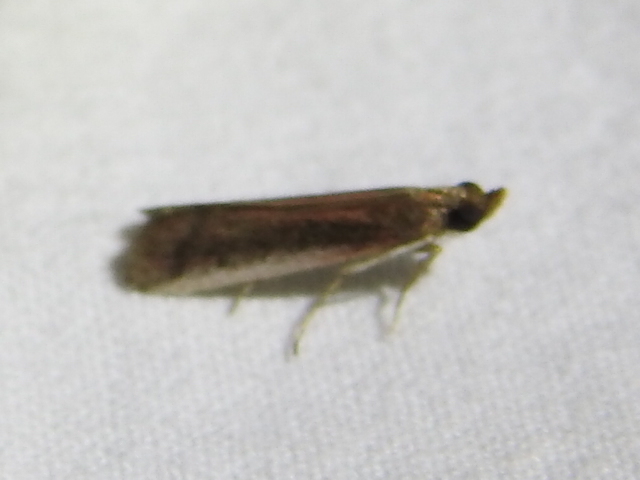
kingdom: Animalia
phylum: Arthropoda
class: Insecta
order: Lepidoptera
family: Pyralidae
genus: Atascosa
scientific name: Atascosa glareosella
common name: Rosy atascosa moth
